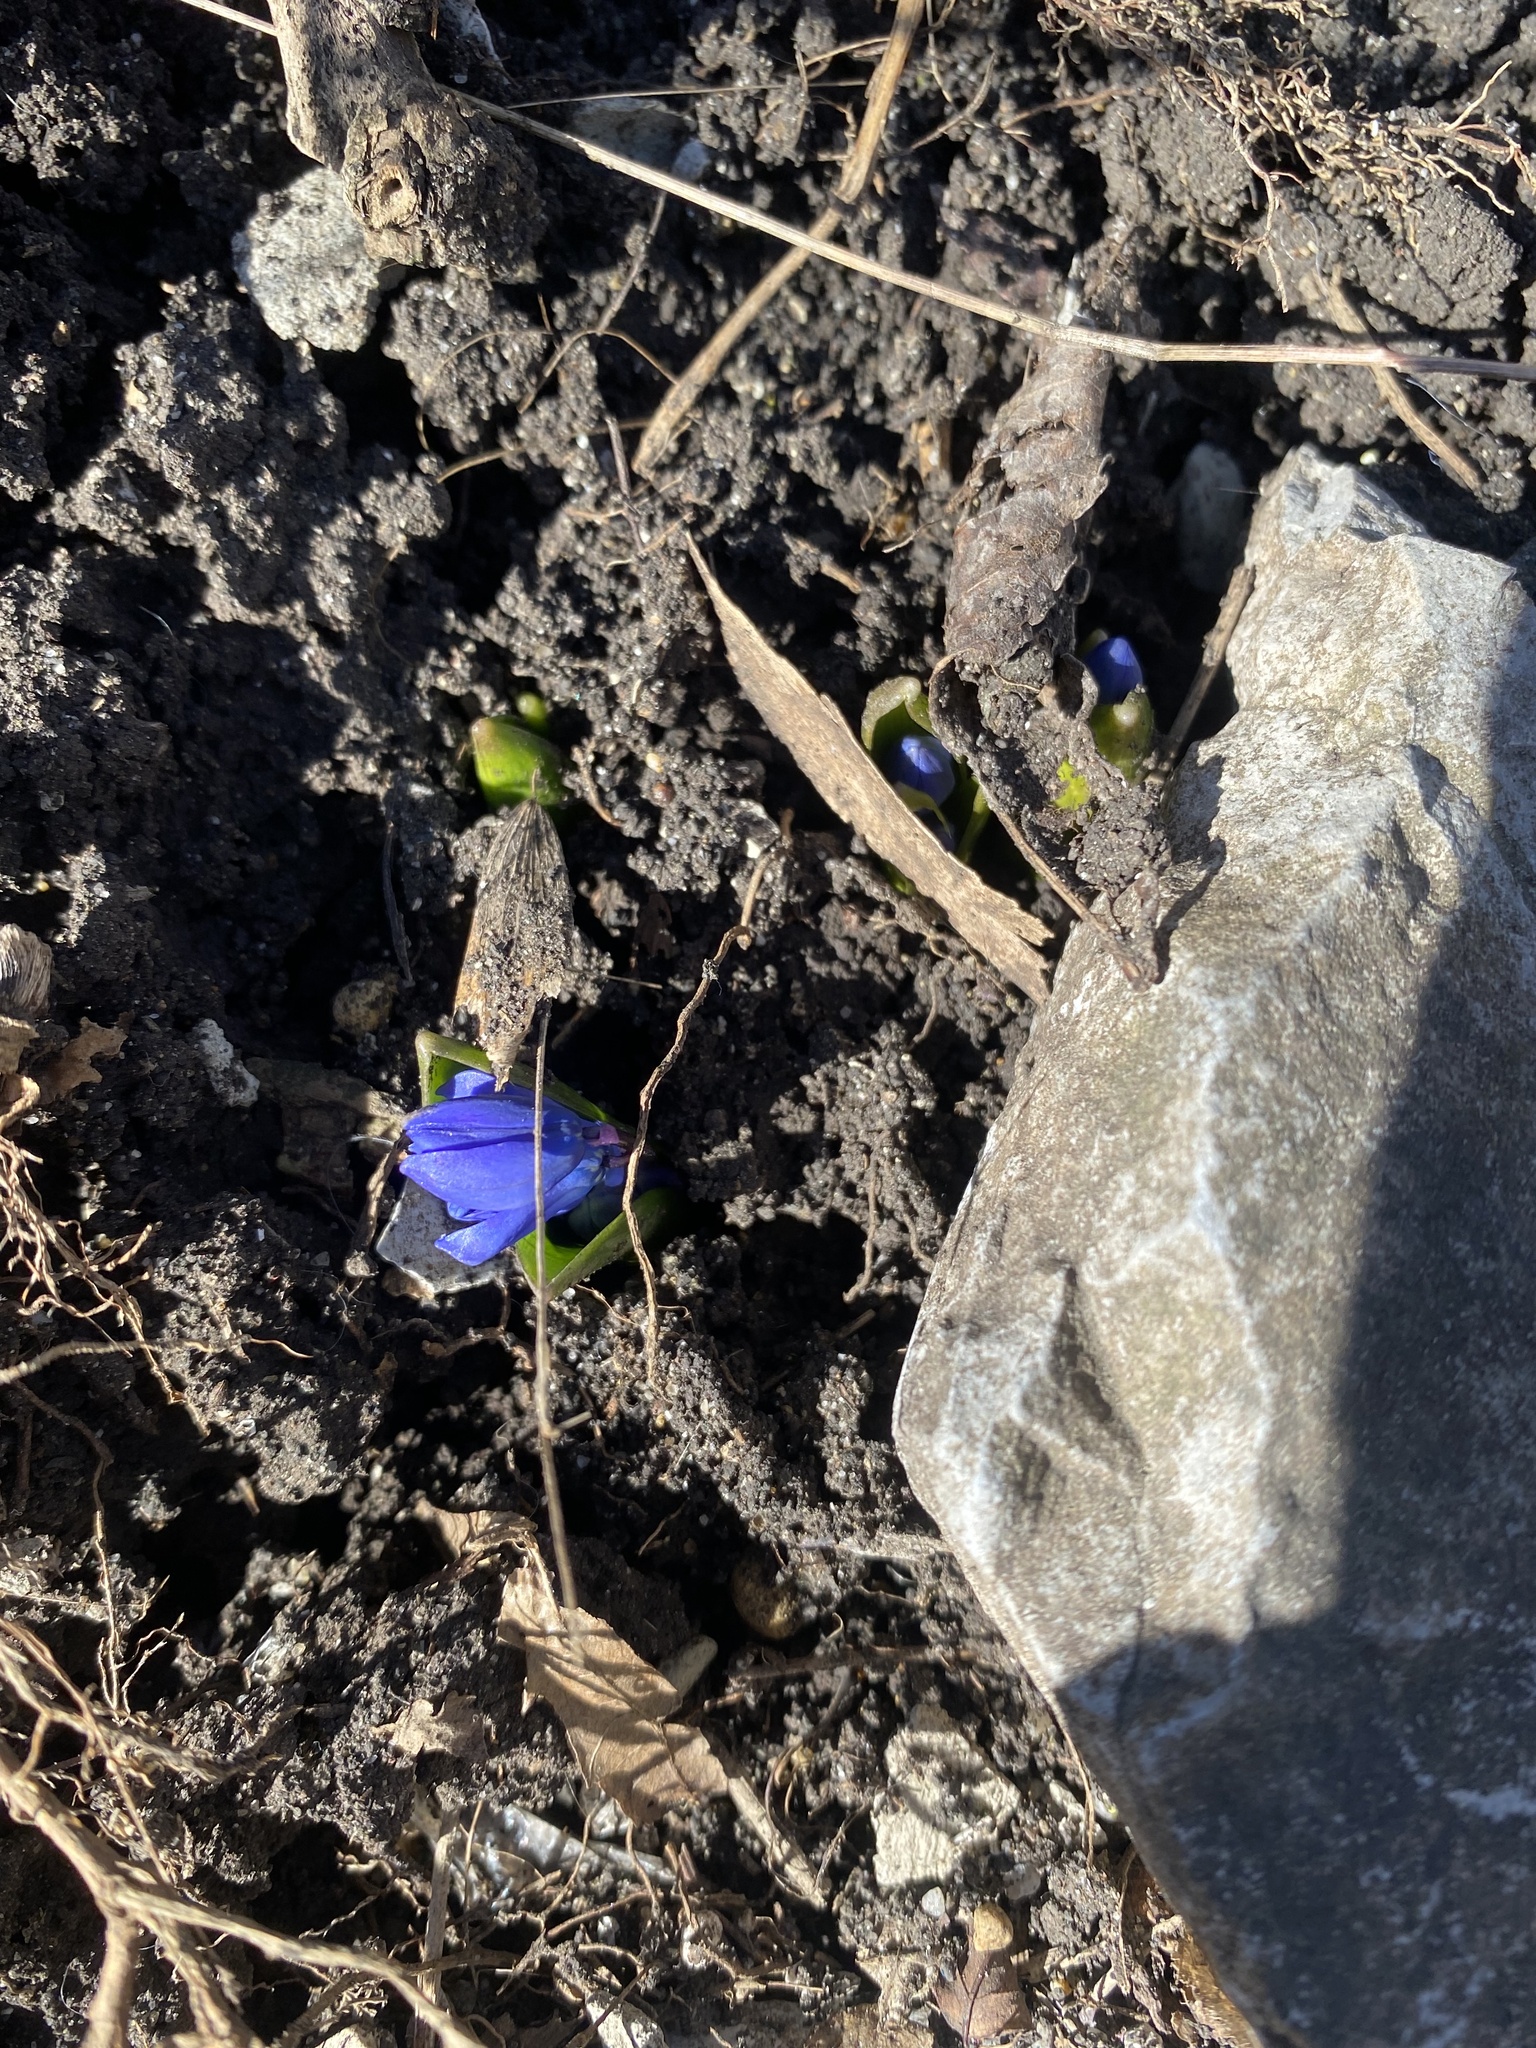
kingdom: Plantae
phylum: Tracheophyta
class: Liliopsida
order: Asparagales
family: Asparagaceae
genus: Scilla
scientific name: Scilla siberica
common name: Siberian squill
